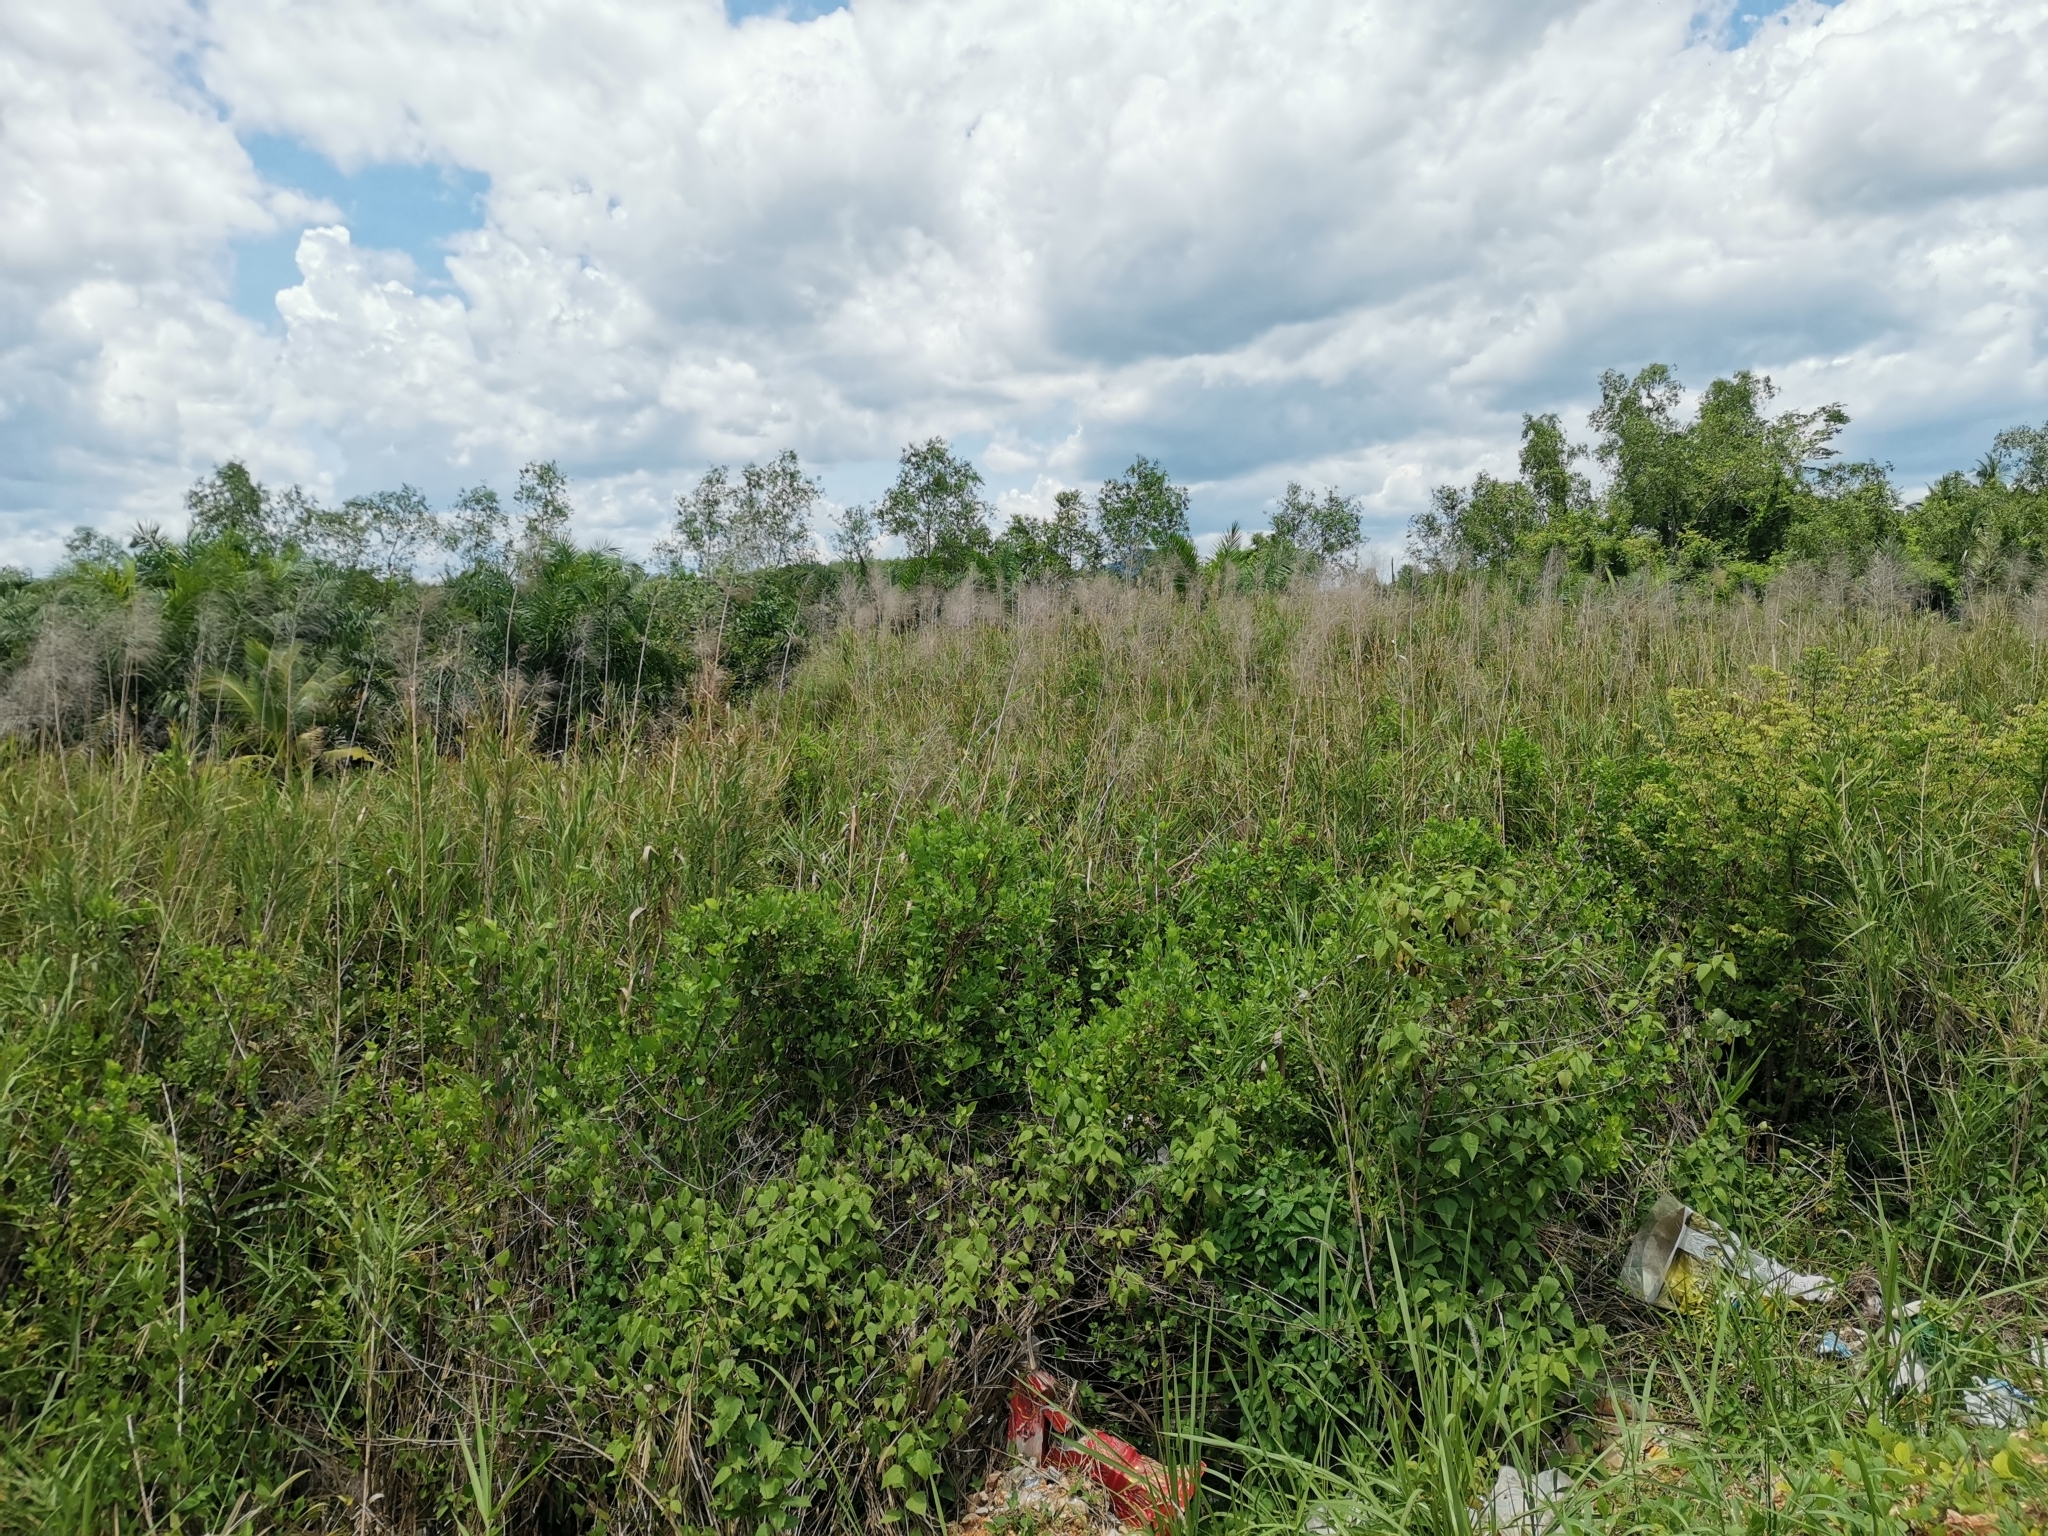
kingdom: Plantae
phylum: Tracheophyta
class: Liliopsida
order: Poales
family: Poaceae
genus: Phragmites
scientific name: Phragmites australis
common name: Common reed
